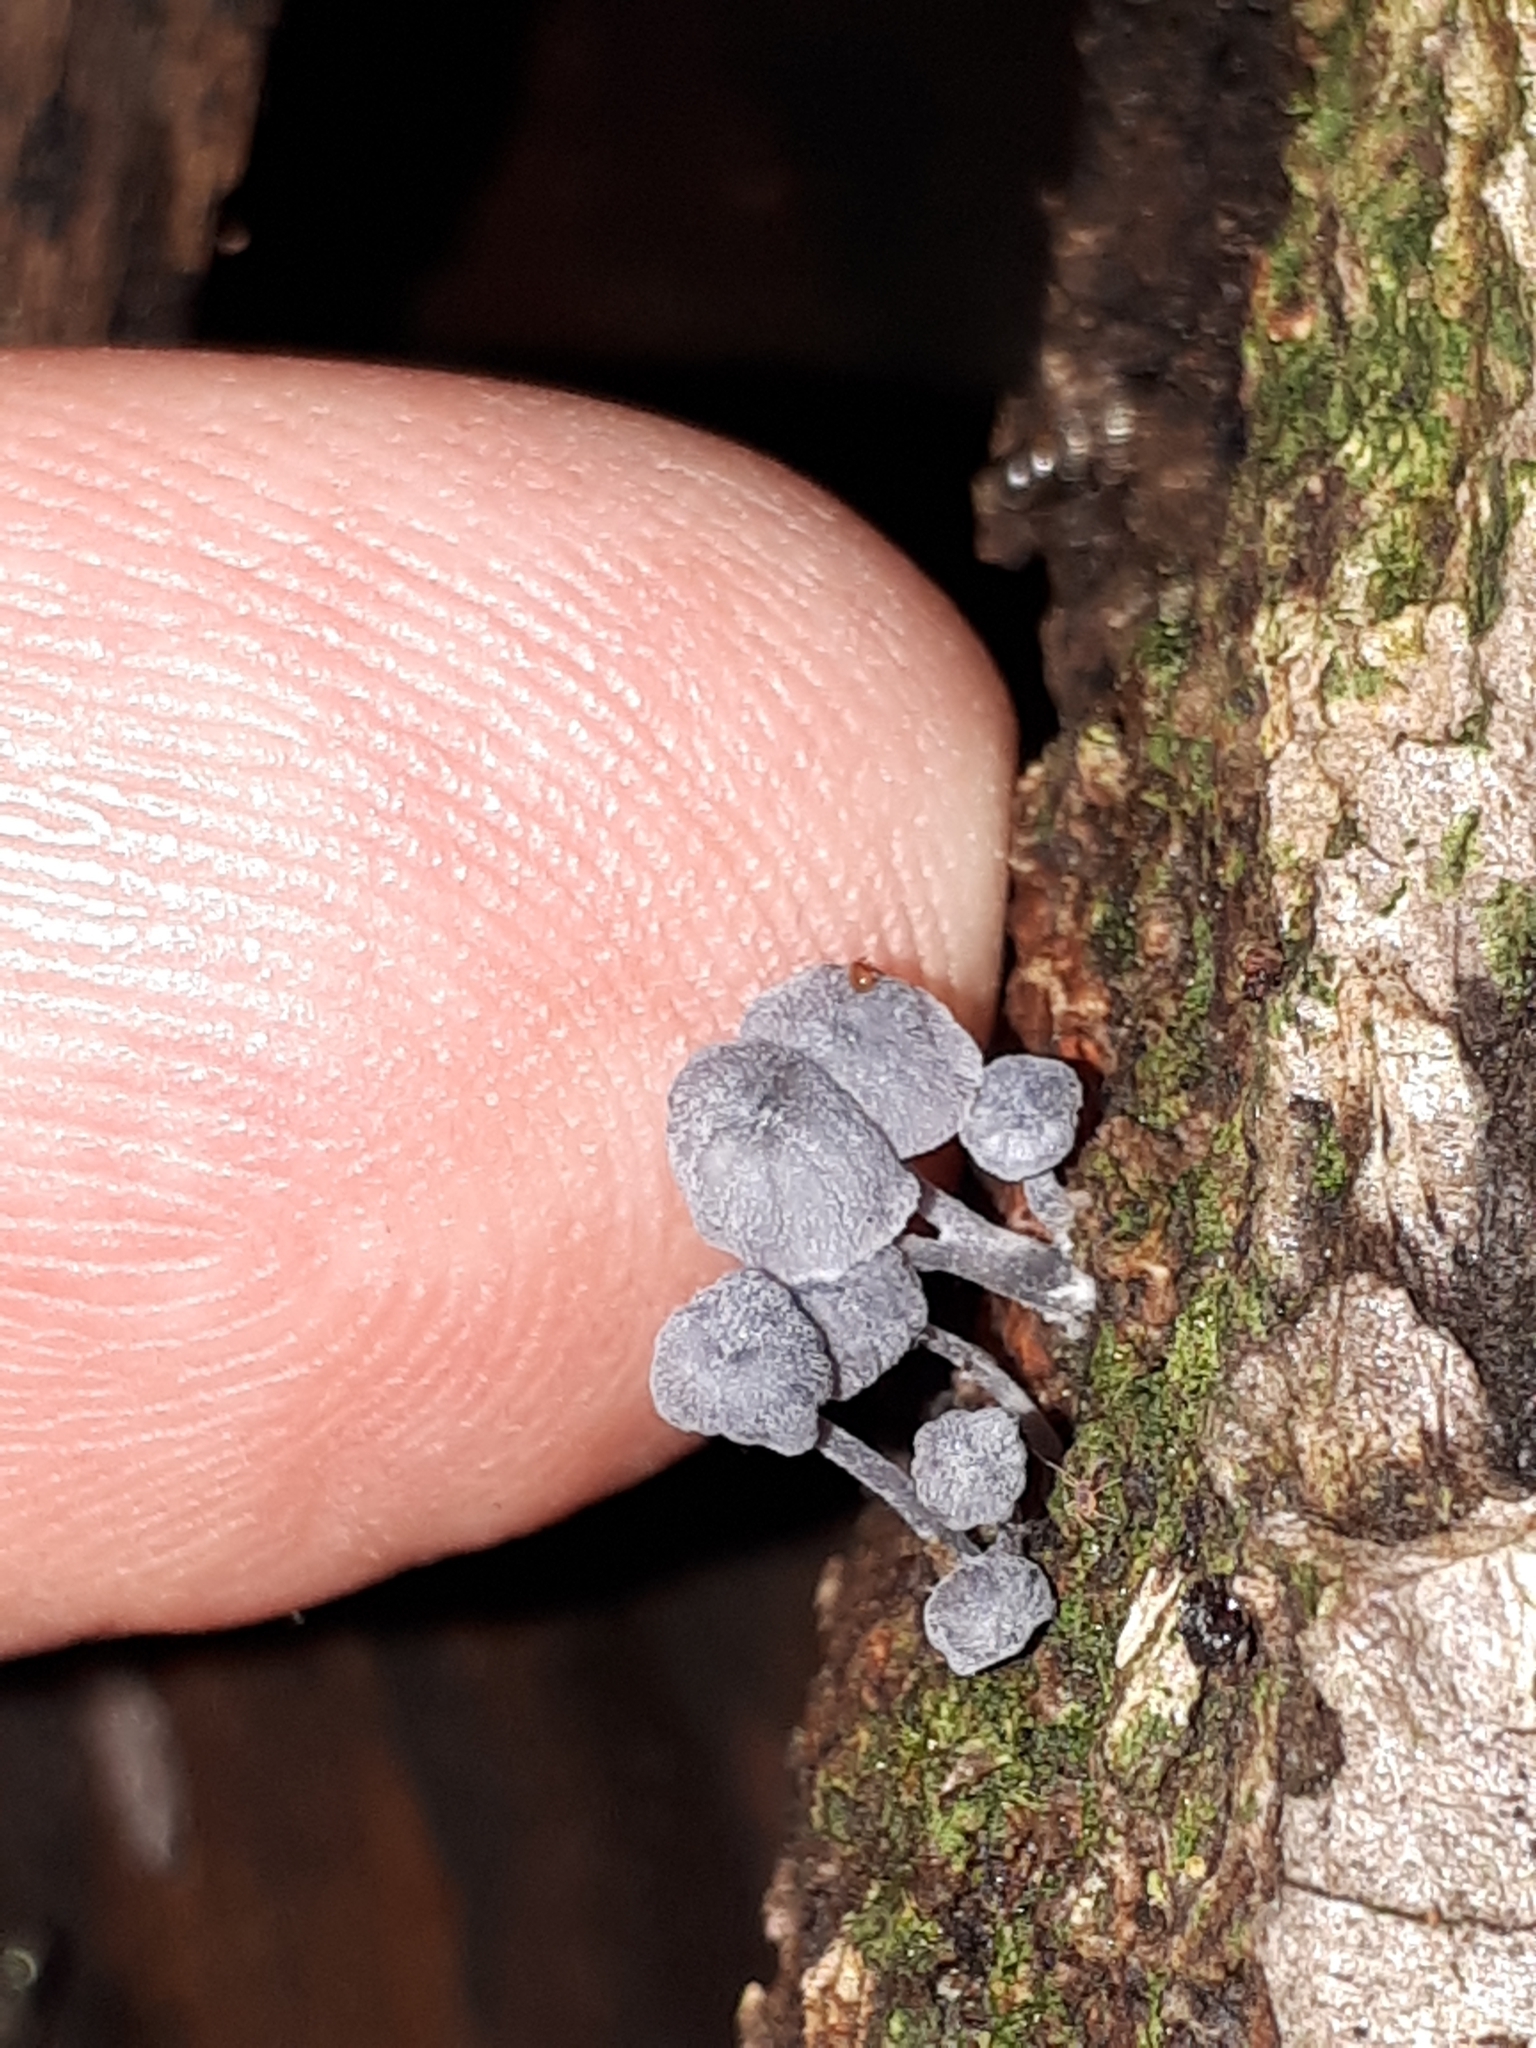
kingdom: Fungi
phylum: Basidiomycota
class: Agaricomycetes
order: Agaricales
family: Mycenaceae
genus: Mycena
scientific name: Mycena pseudocorticola
